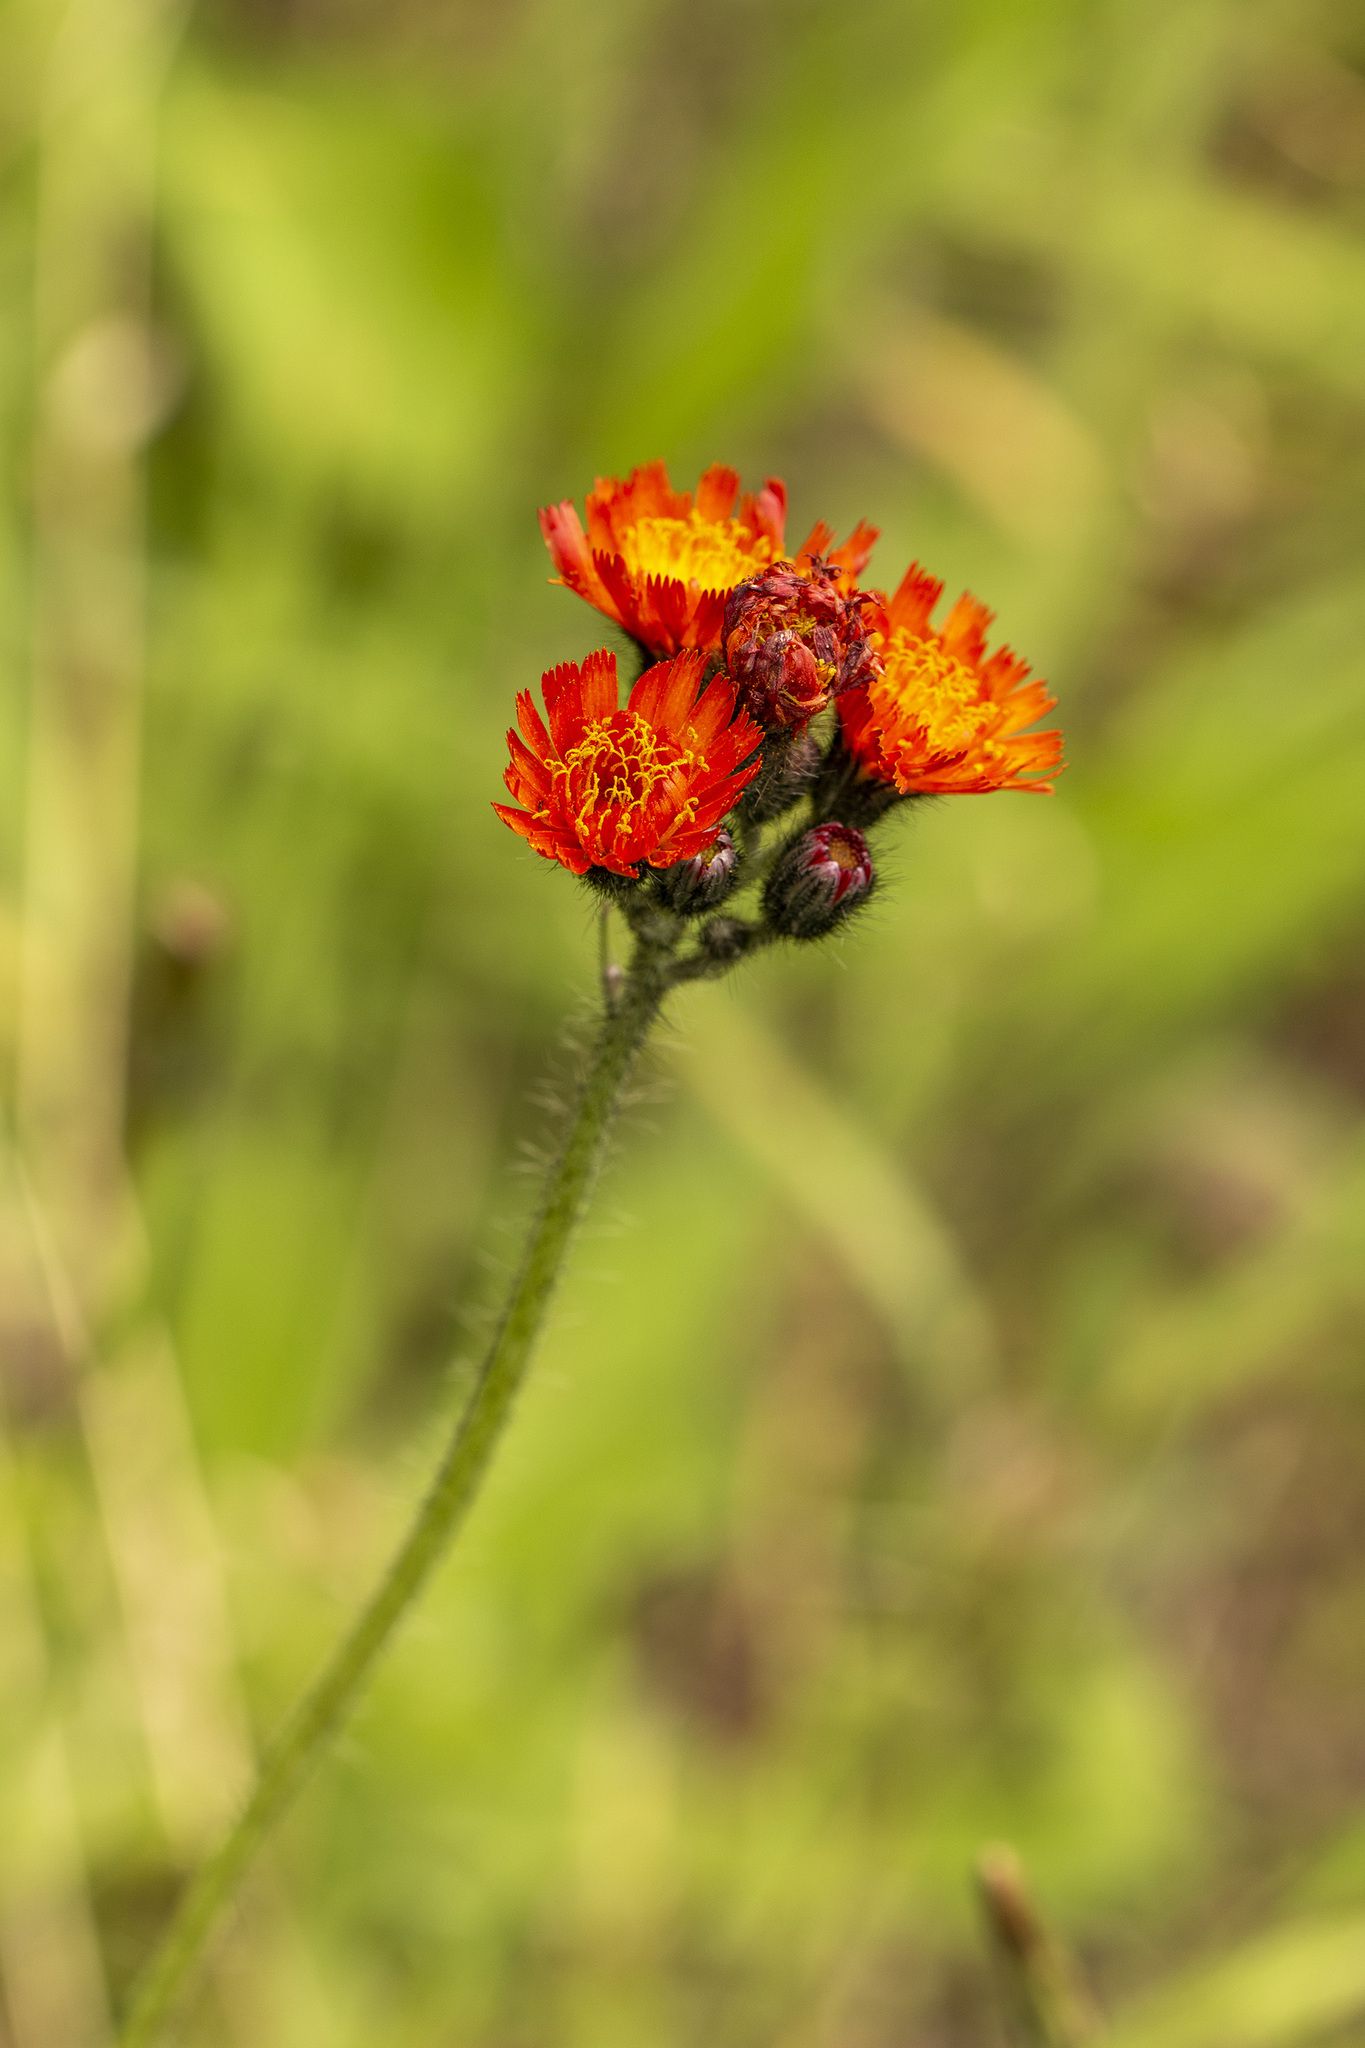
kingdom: Plantae
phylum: Tracheophyta
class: Magnoliopsida
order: Asterales
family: Asteraceae
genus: Pilosella
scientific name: Pilosella aurantiaca
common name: Fox-and-cubs
